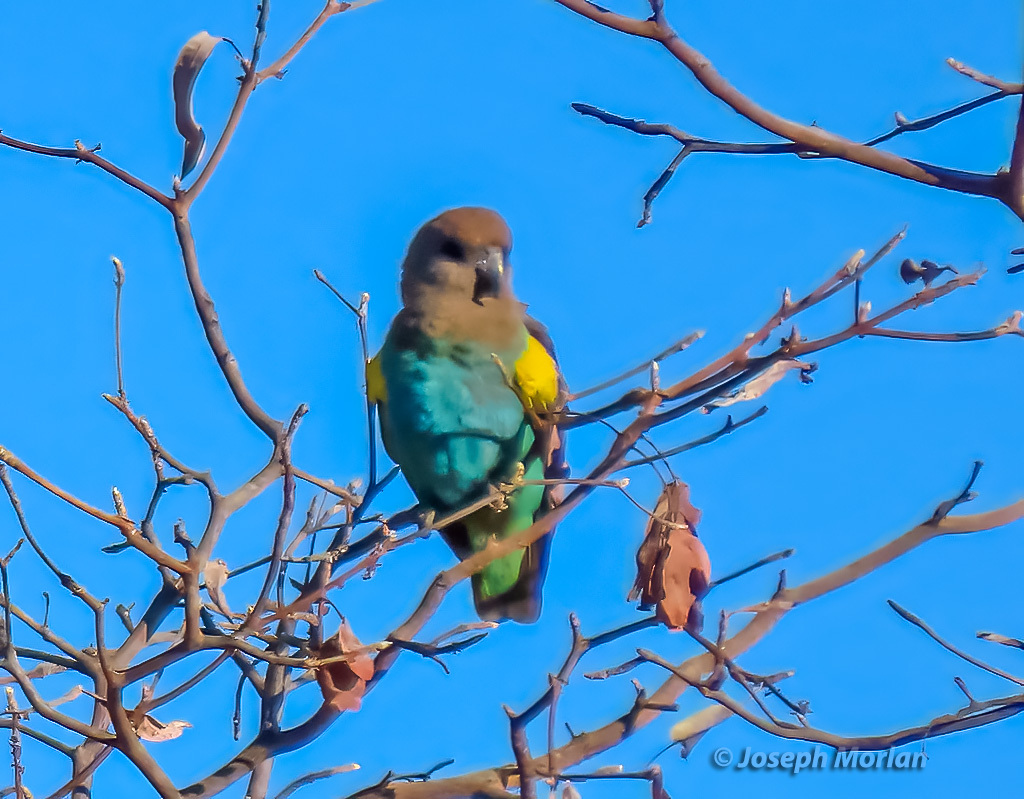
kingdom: Animalia
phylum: Chordata
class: Aves
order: Psittaciformes
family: Psittacidae
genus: Poicephalus
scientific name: Poicephalus meyeri
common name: Meyer's parrot
